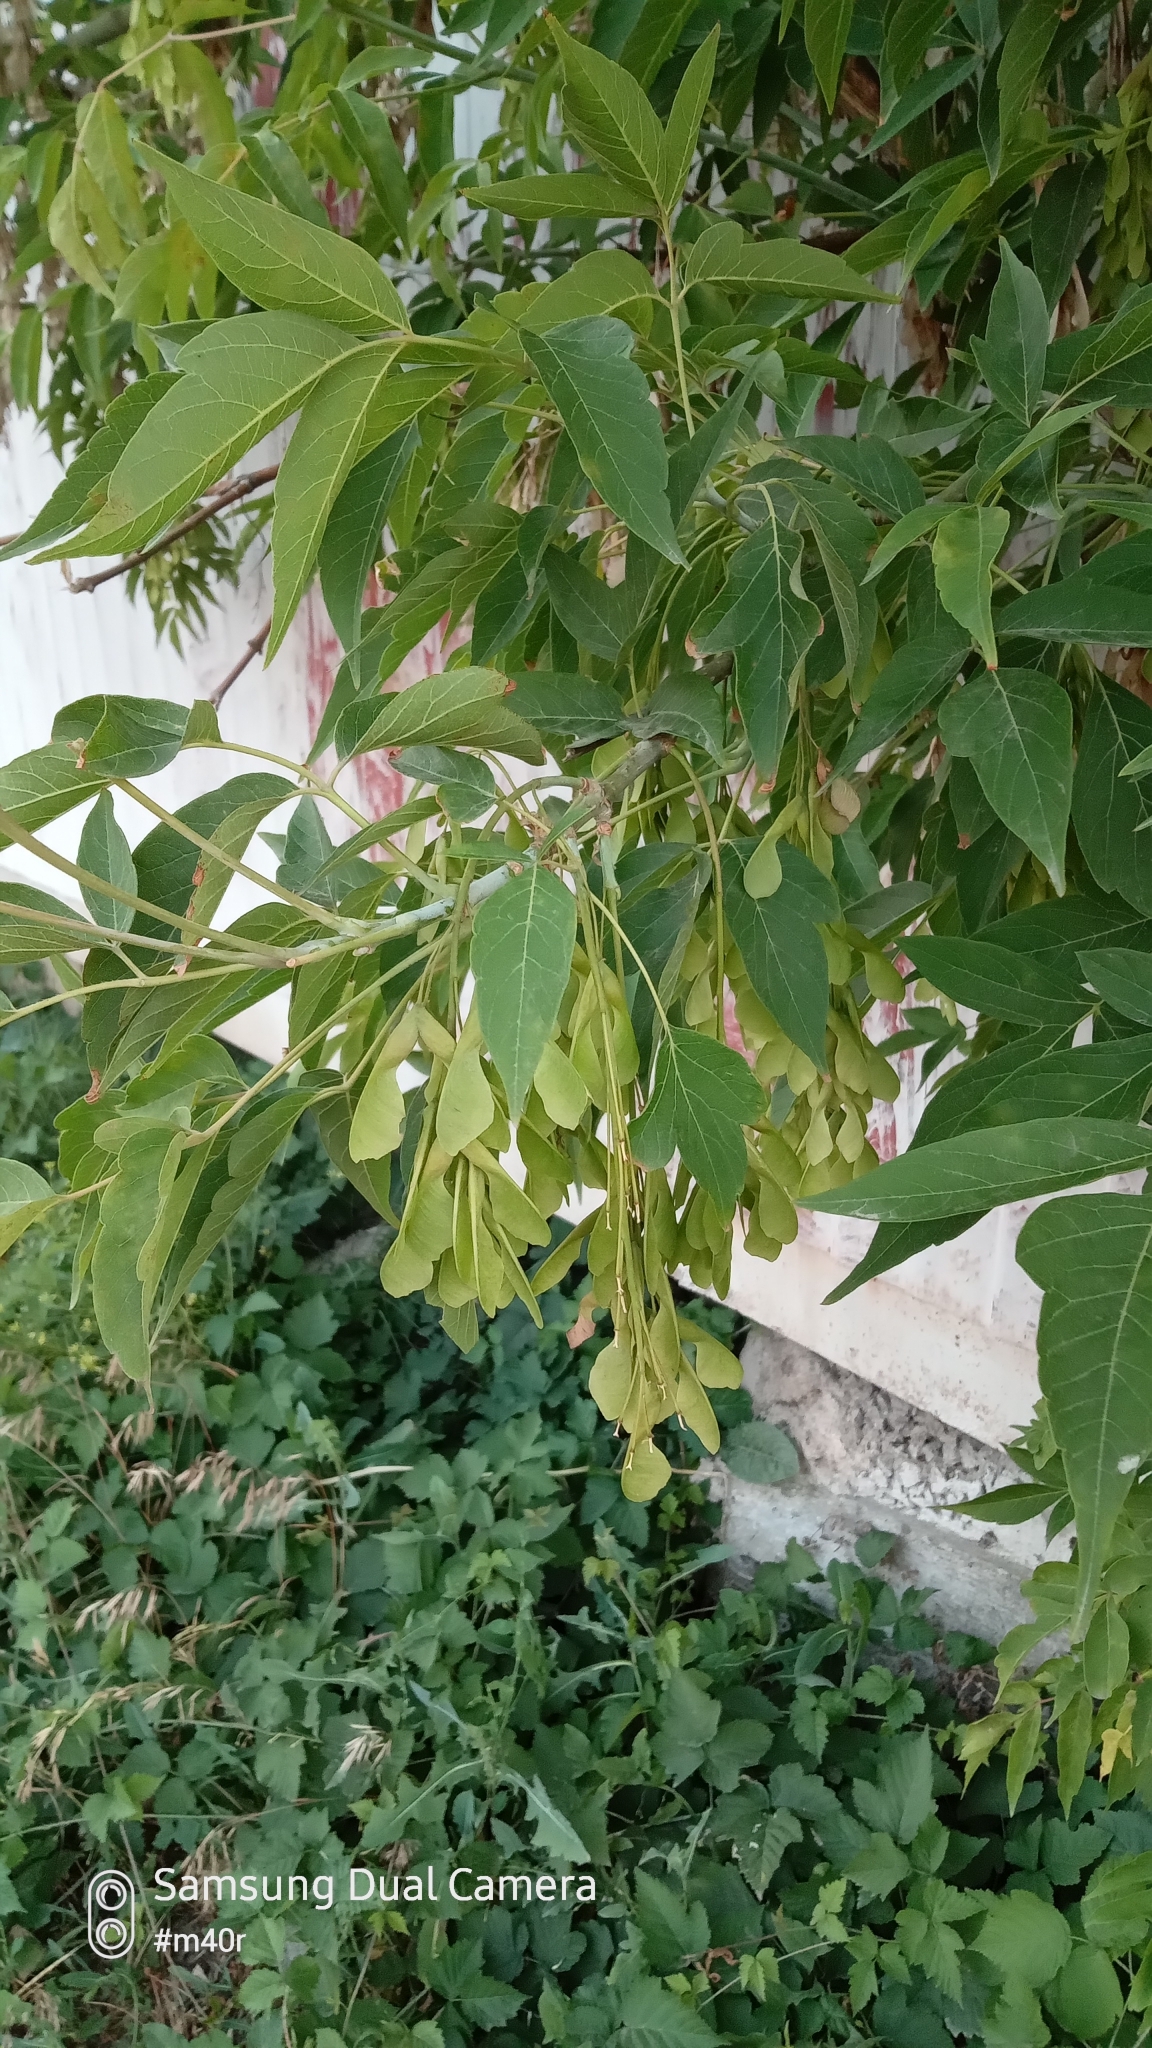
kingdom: Plantae
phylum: Tracheophyta
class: Magnoliopsida
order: Sapindales
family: Sapindaceae
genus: Acer
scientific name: Acer negundo
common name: Ashleaf maple
